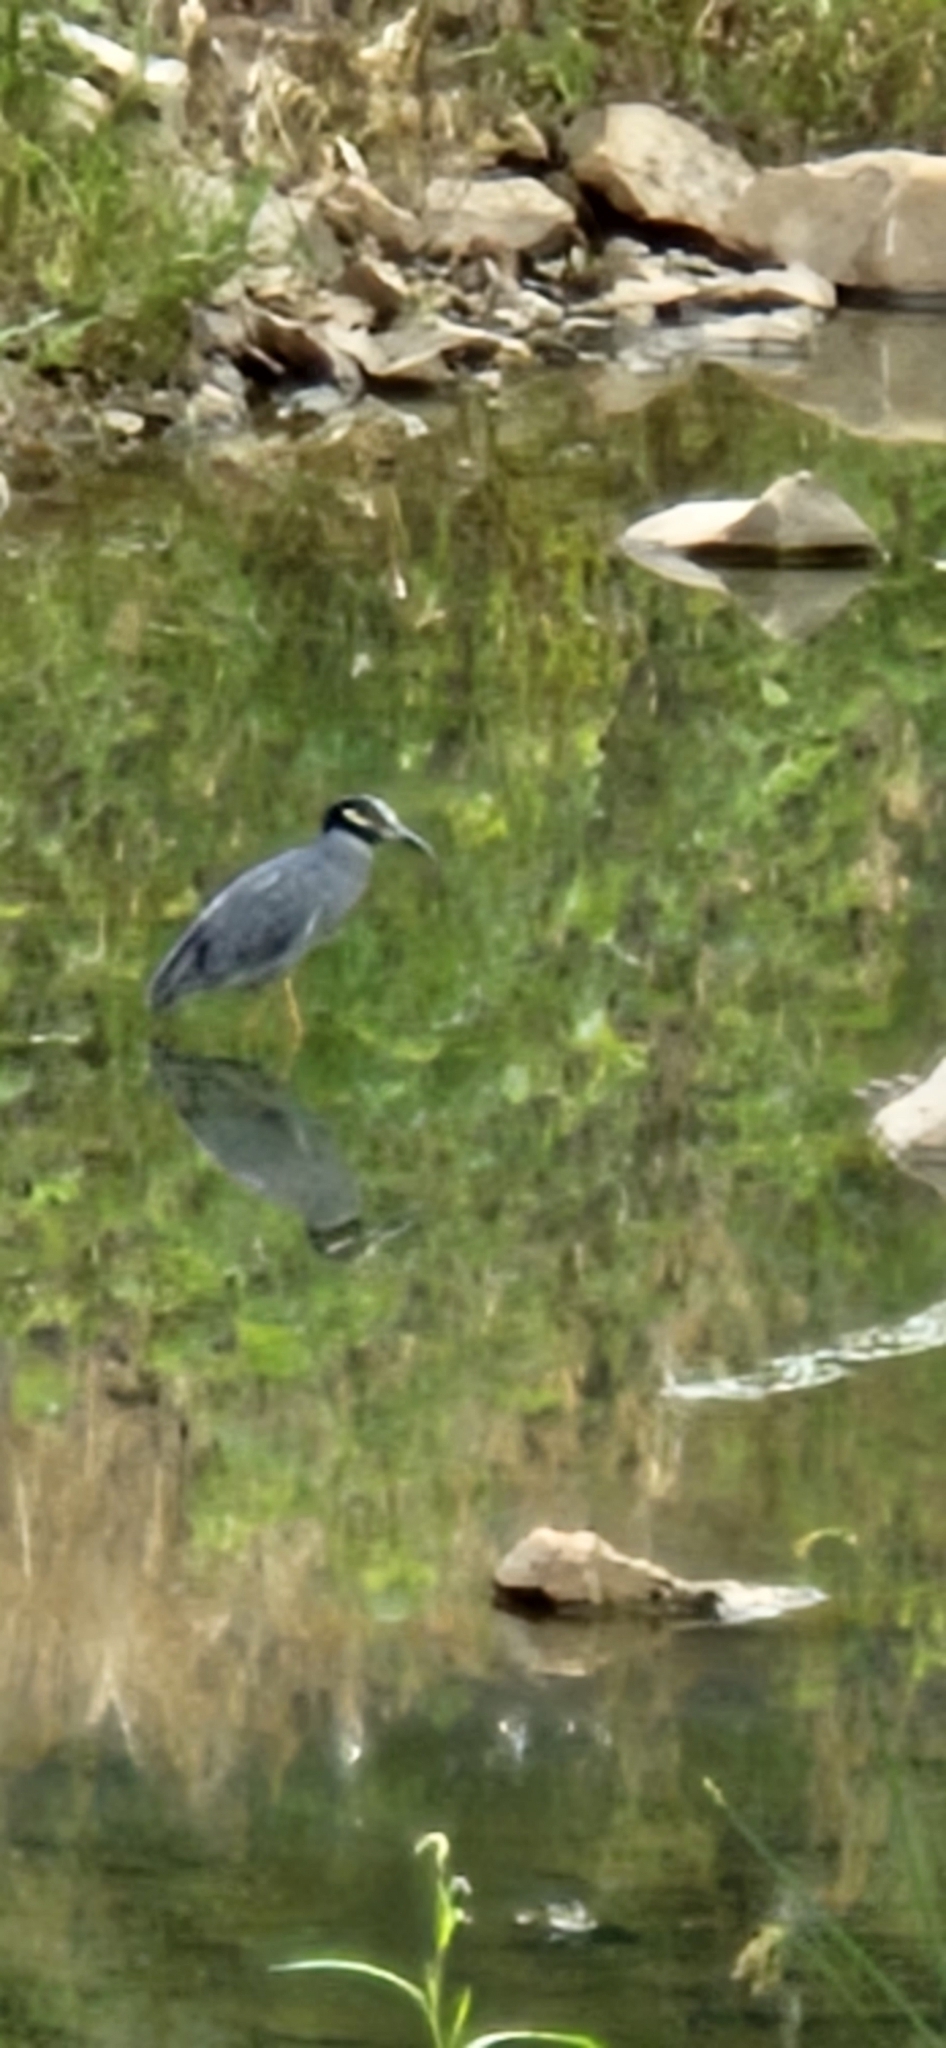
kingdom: Animalia
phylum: Chordata
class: Aves
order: Pelecaniformes
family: Ardeidae
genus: Nyctanassa
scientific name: Nyctanassa violacea
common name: Yellow-crowned night heron
